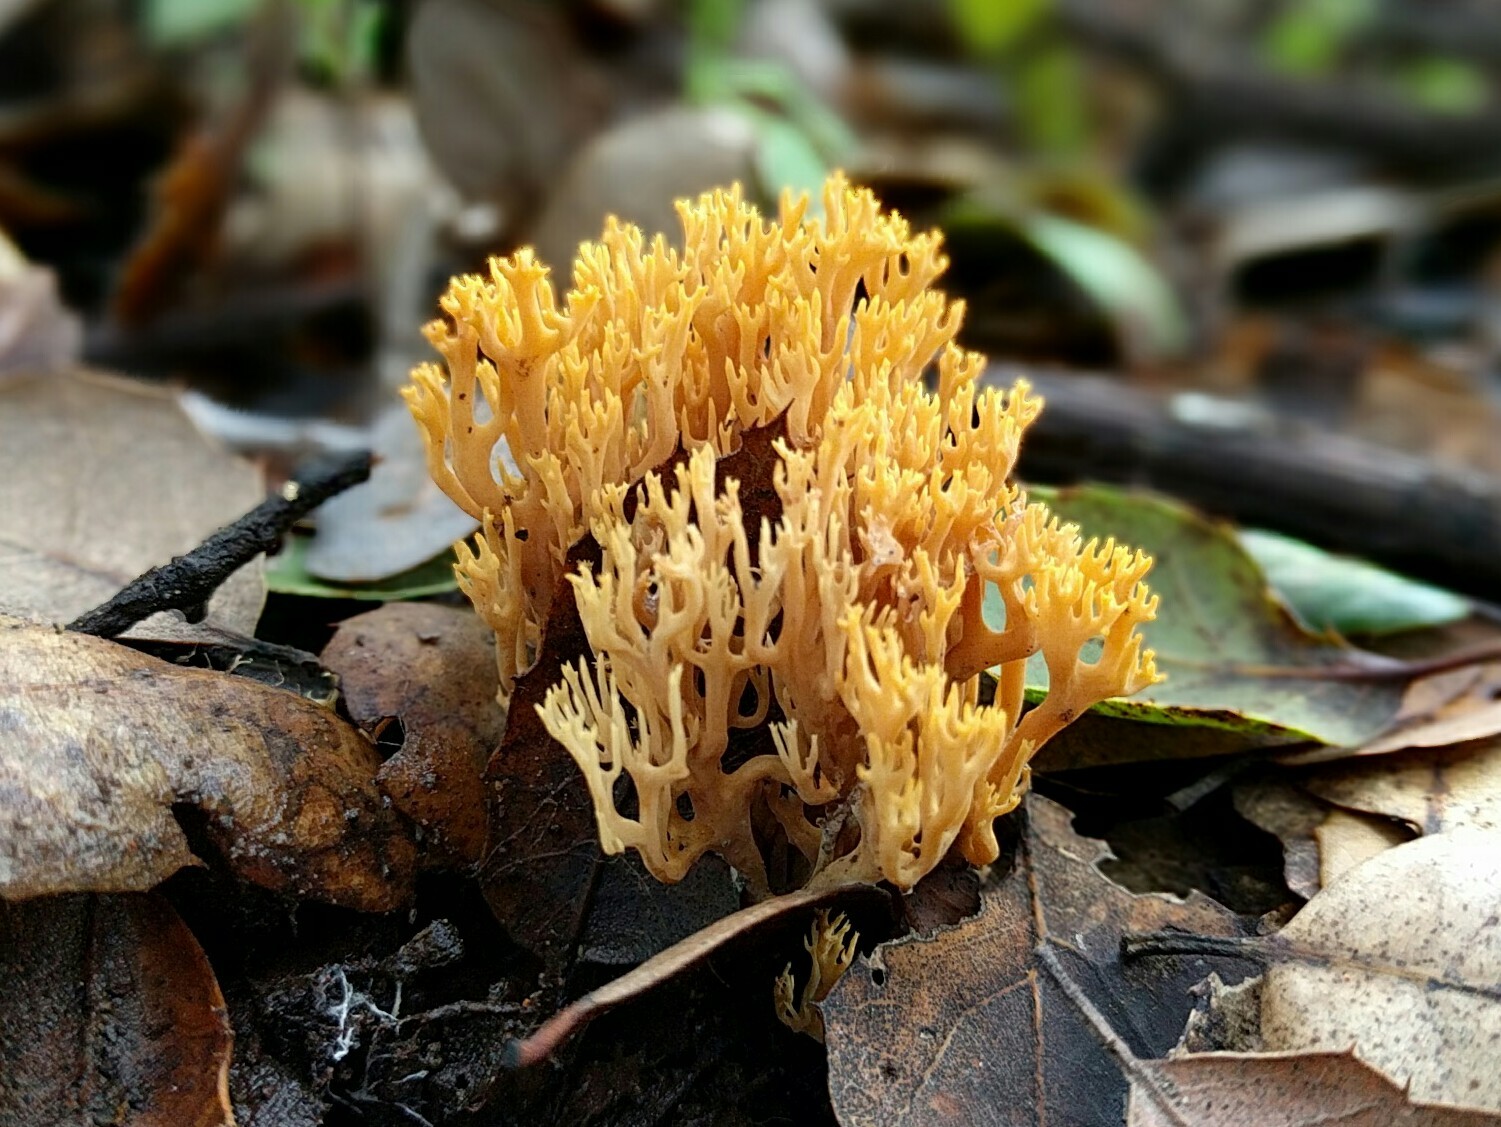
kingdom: Fungi
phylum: Basidiomycota
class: Agaricomycetes
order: Gomphales
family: Gomphaceae
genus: Phaeoclavulina
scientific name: Phaeoclavulina myceliosa
